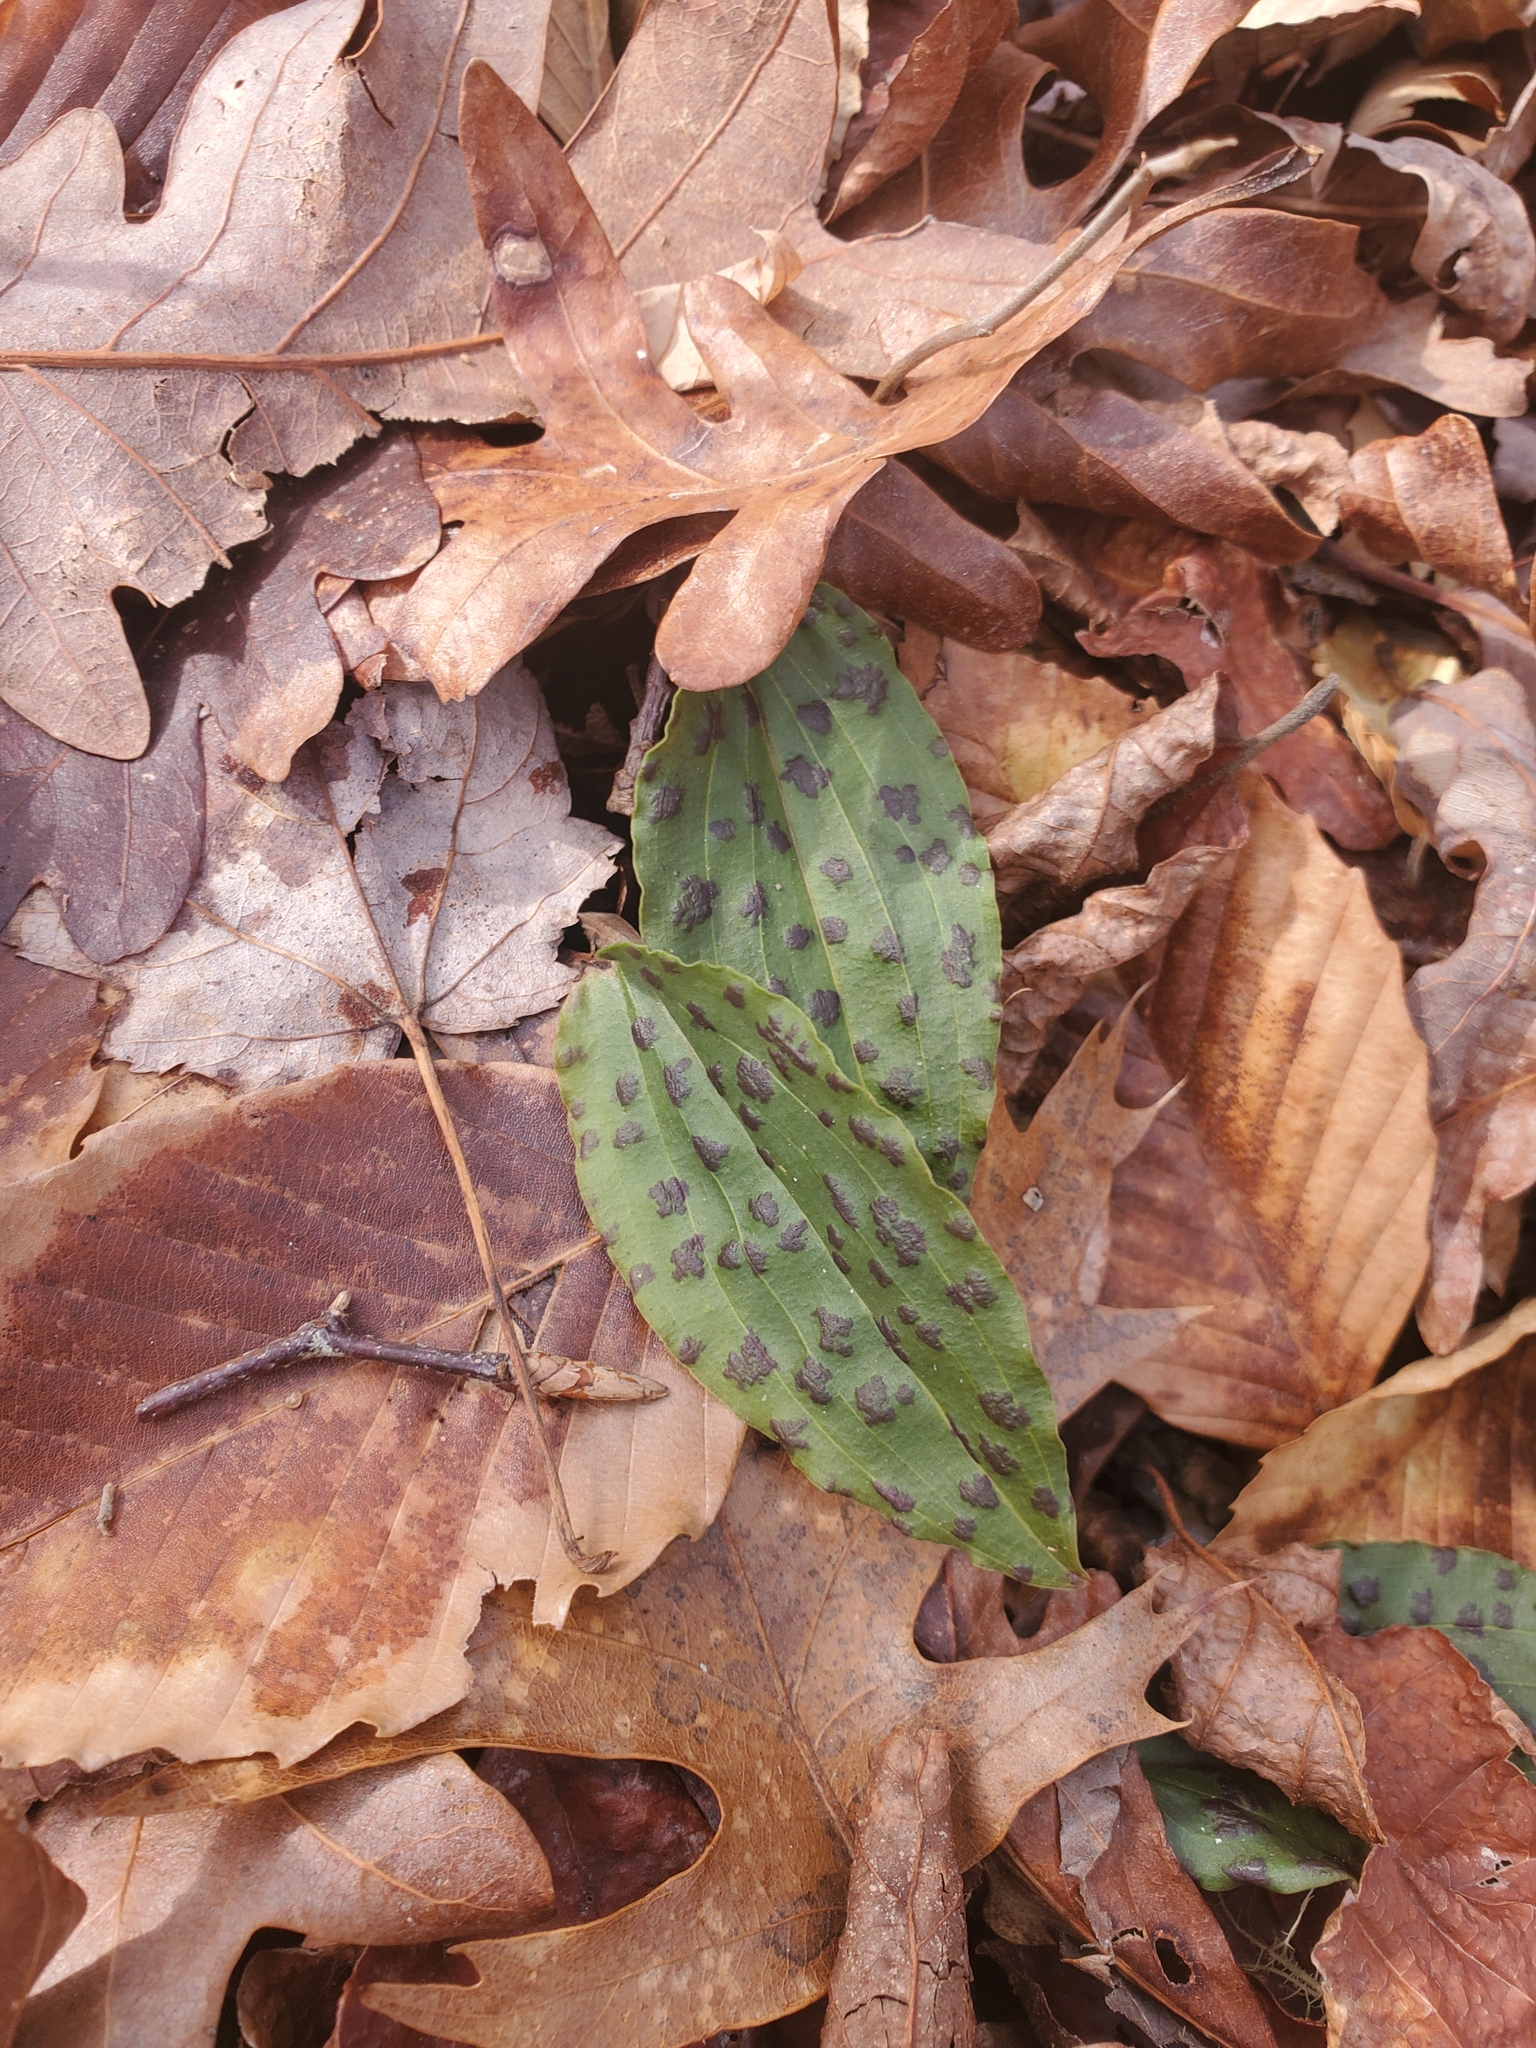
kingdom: Plantae
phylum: Tracheophyta
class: Liliopsida
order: Asparagales
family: Orchidaceae
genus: Tipularia
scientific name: Tipularia discolor
